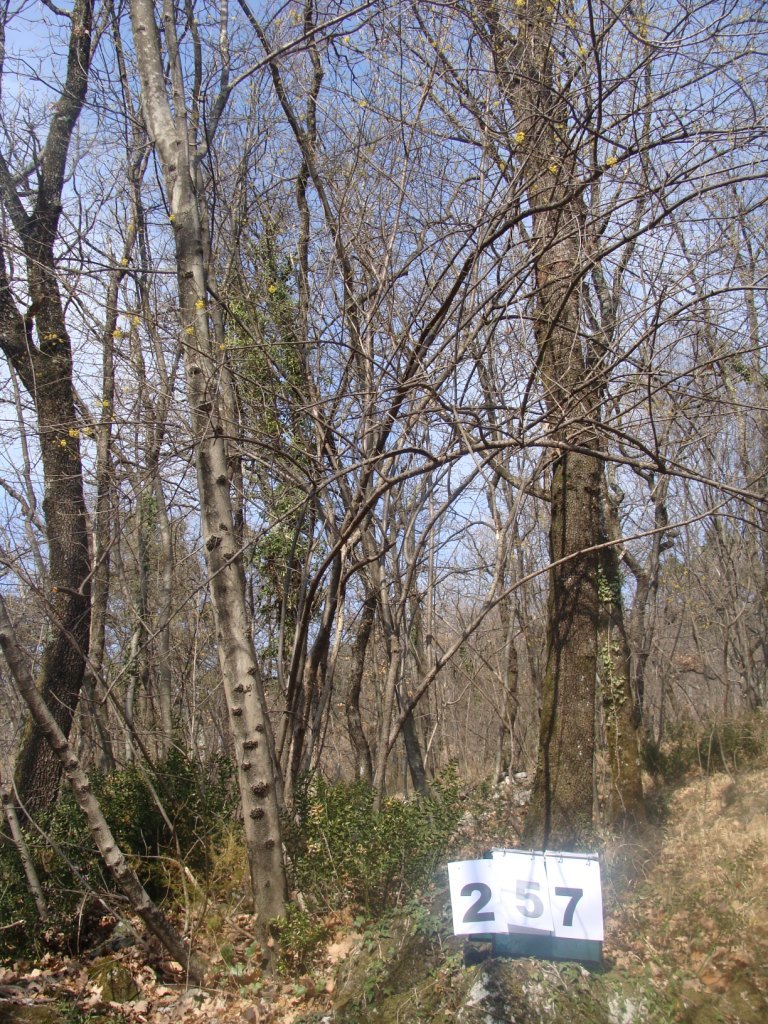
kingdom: Plantae
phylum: Tracheophyta
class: Magnoliopsida
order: Cornales
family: Cornaceae
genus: Cornus
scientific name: Cornus mas
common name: Cornelian-cherry
